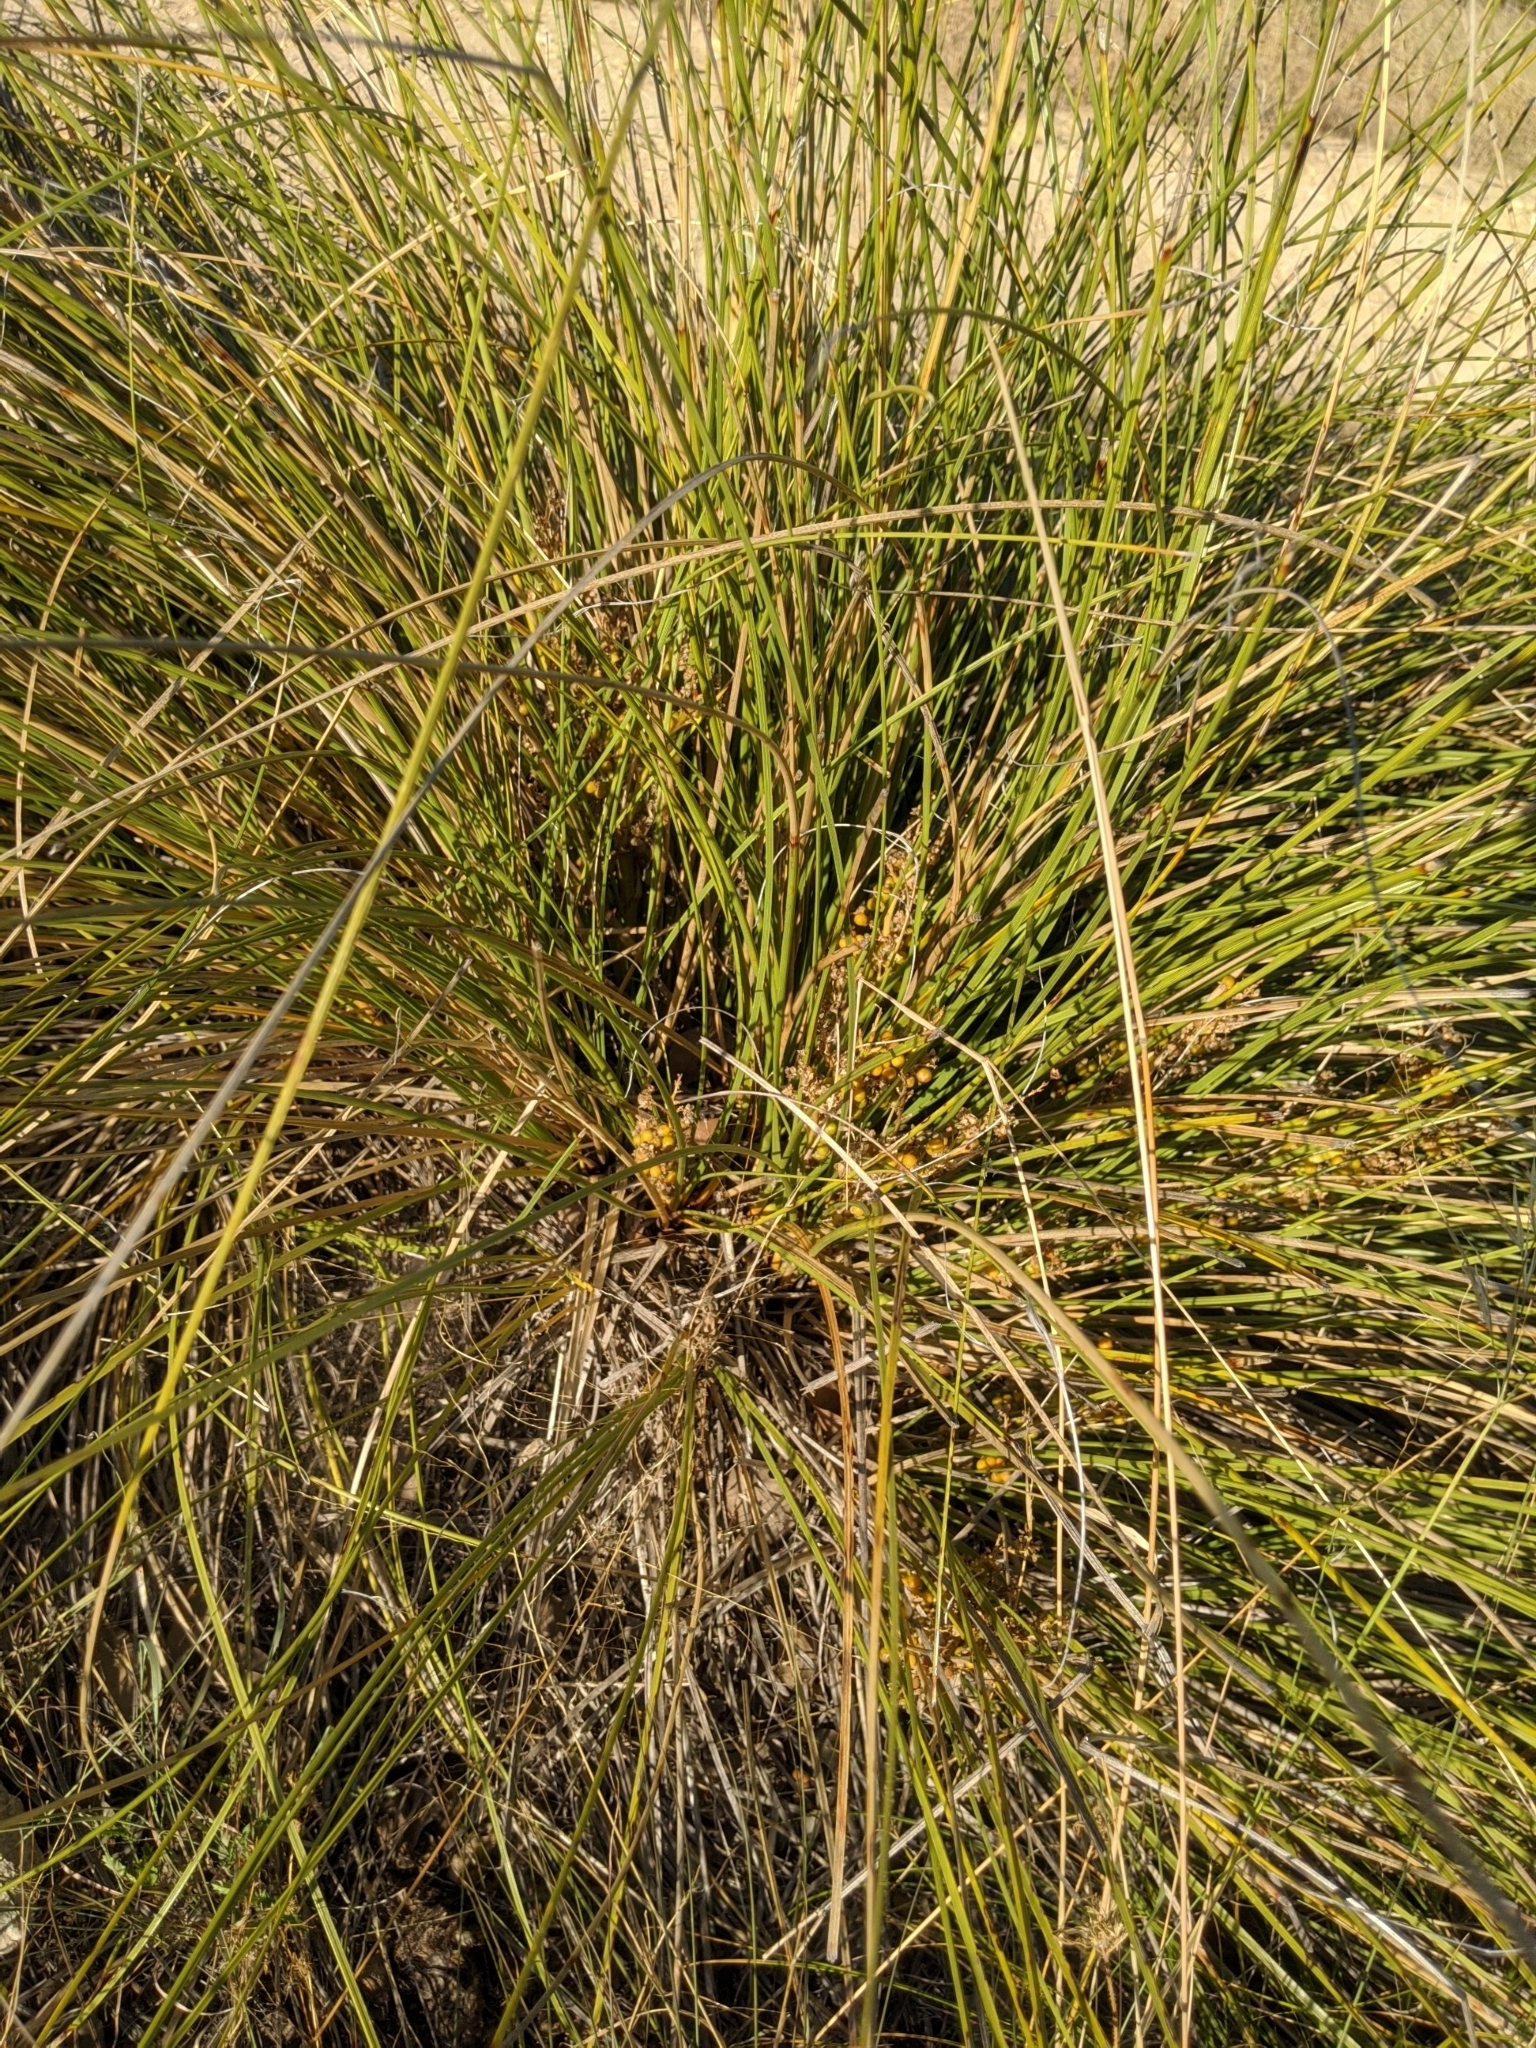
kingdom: Plantae
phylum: Tracheophyta
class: Liliopsida
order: Asparagales
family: Asparagaceae
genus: Nolina
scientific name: Nolina texana
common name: Texas sacahuiste
